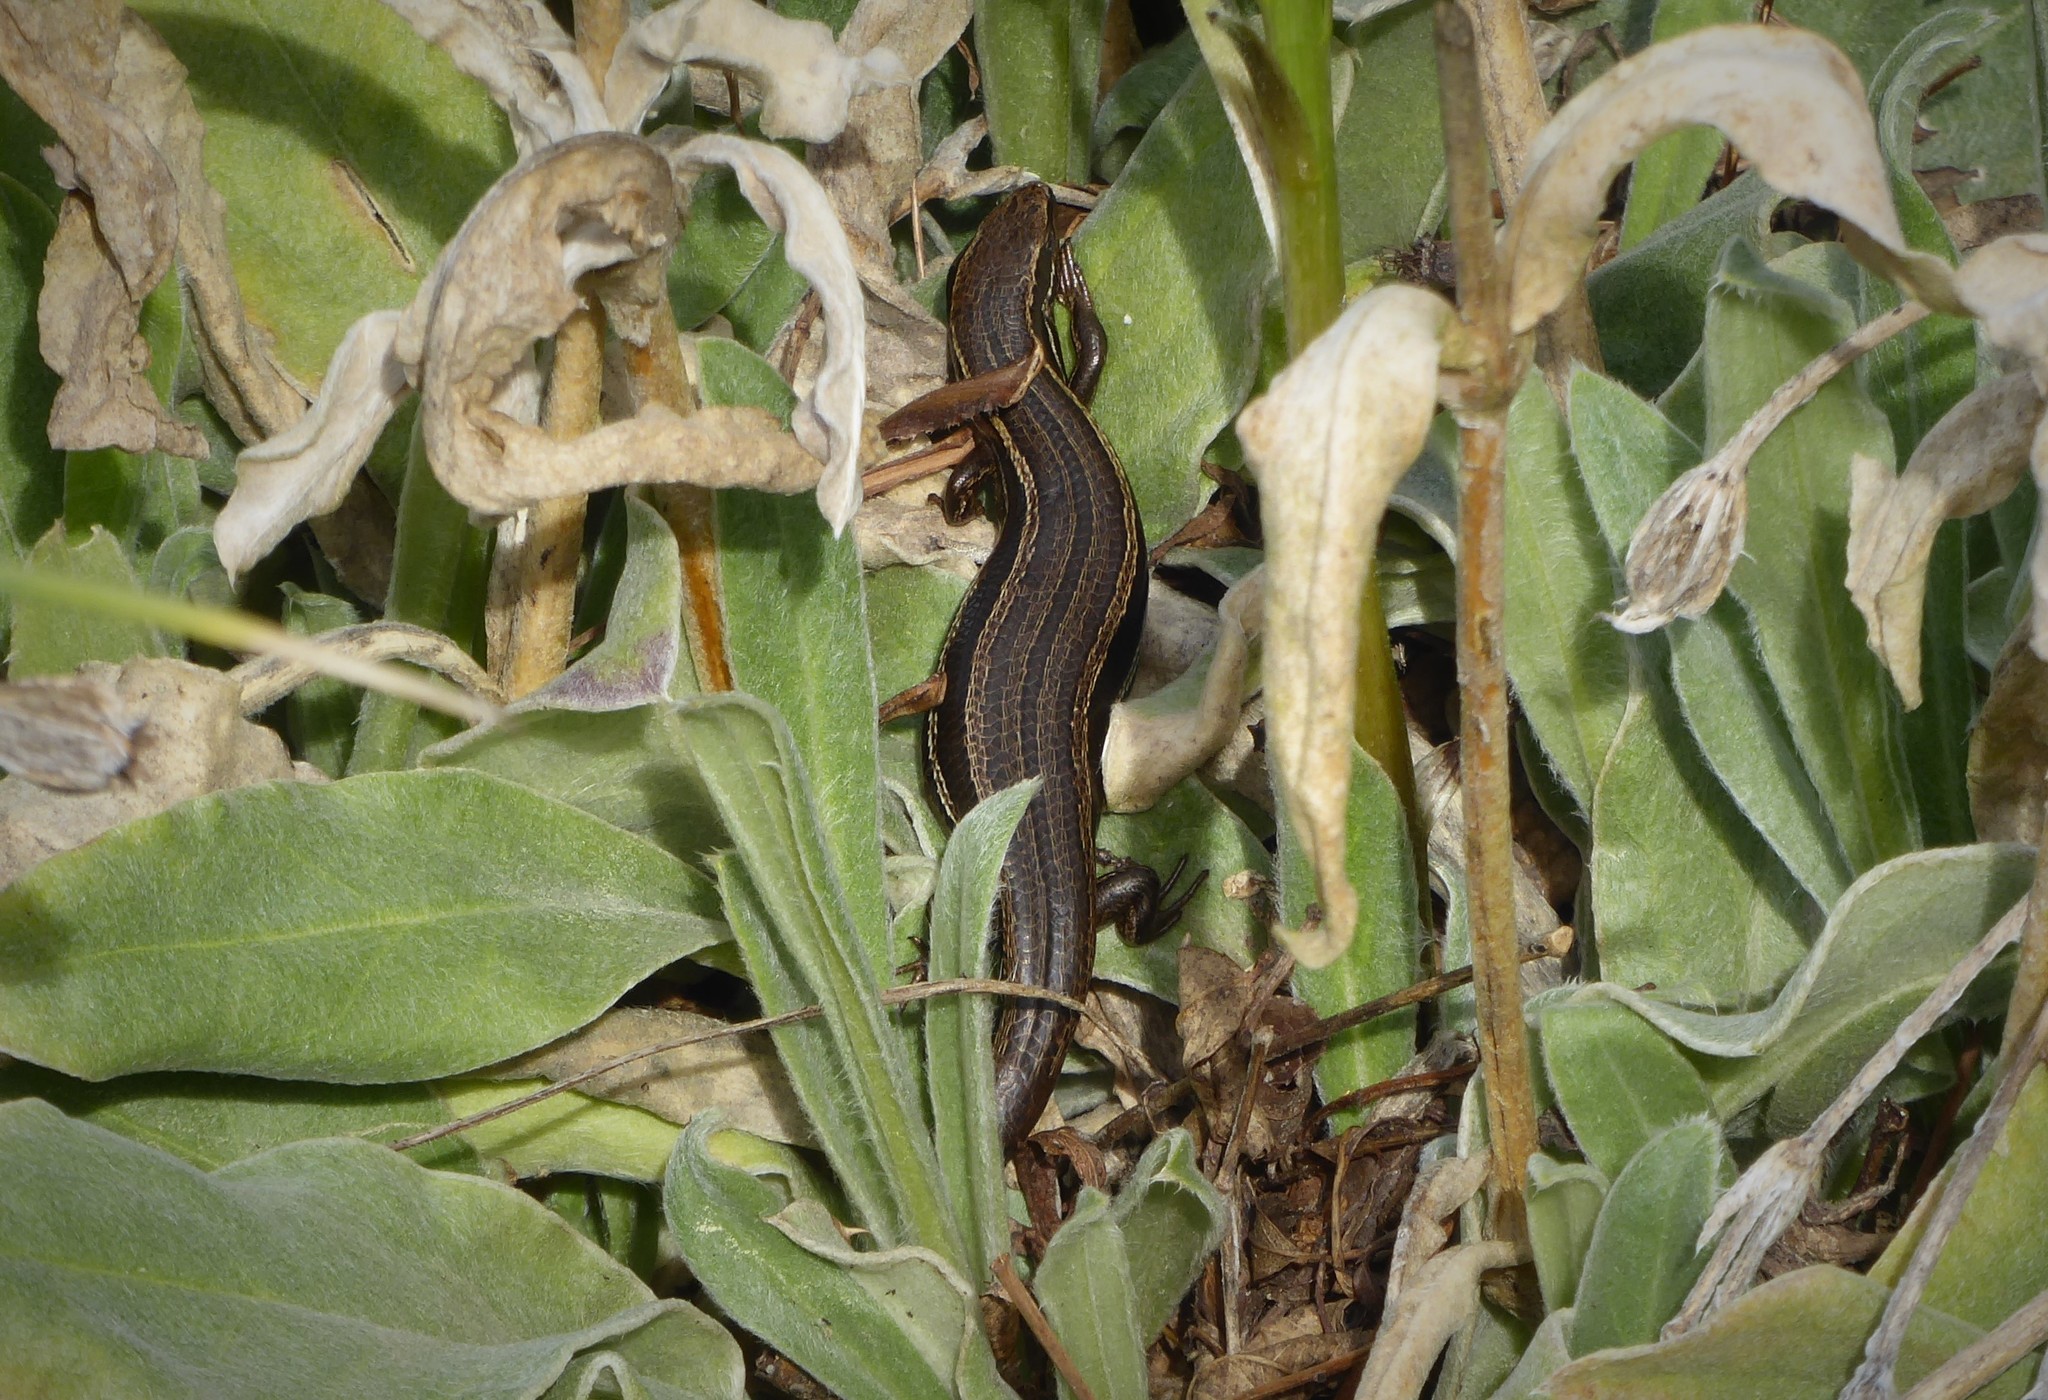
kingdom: Animalia
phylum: Chordata
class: Squamata
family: Scincidae
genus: Oligosoma
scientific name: Oligosoma polychroma
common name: Common new zealand skink
